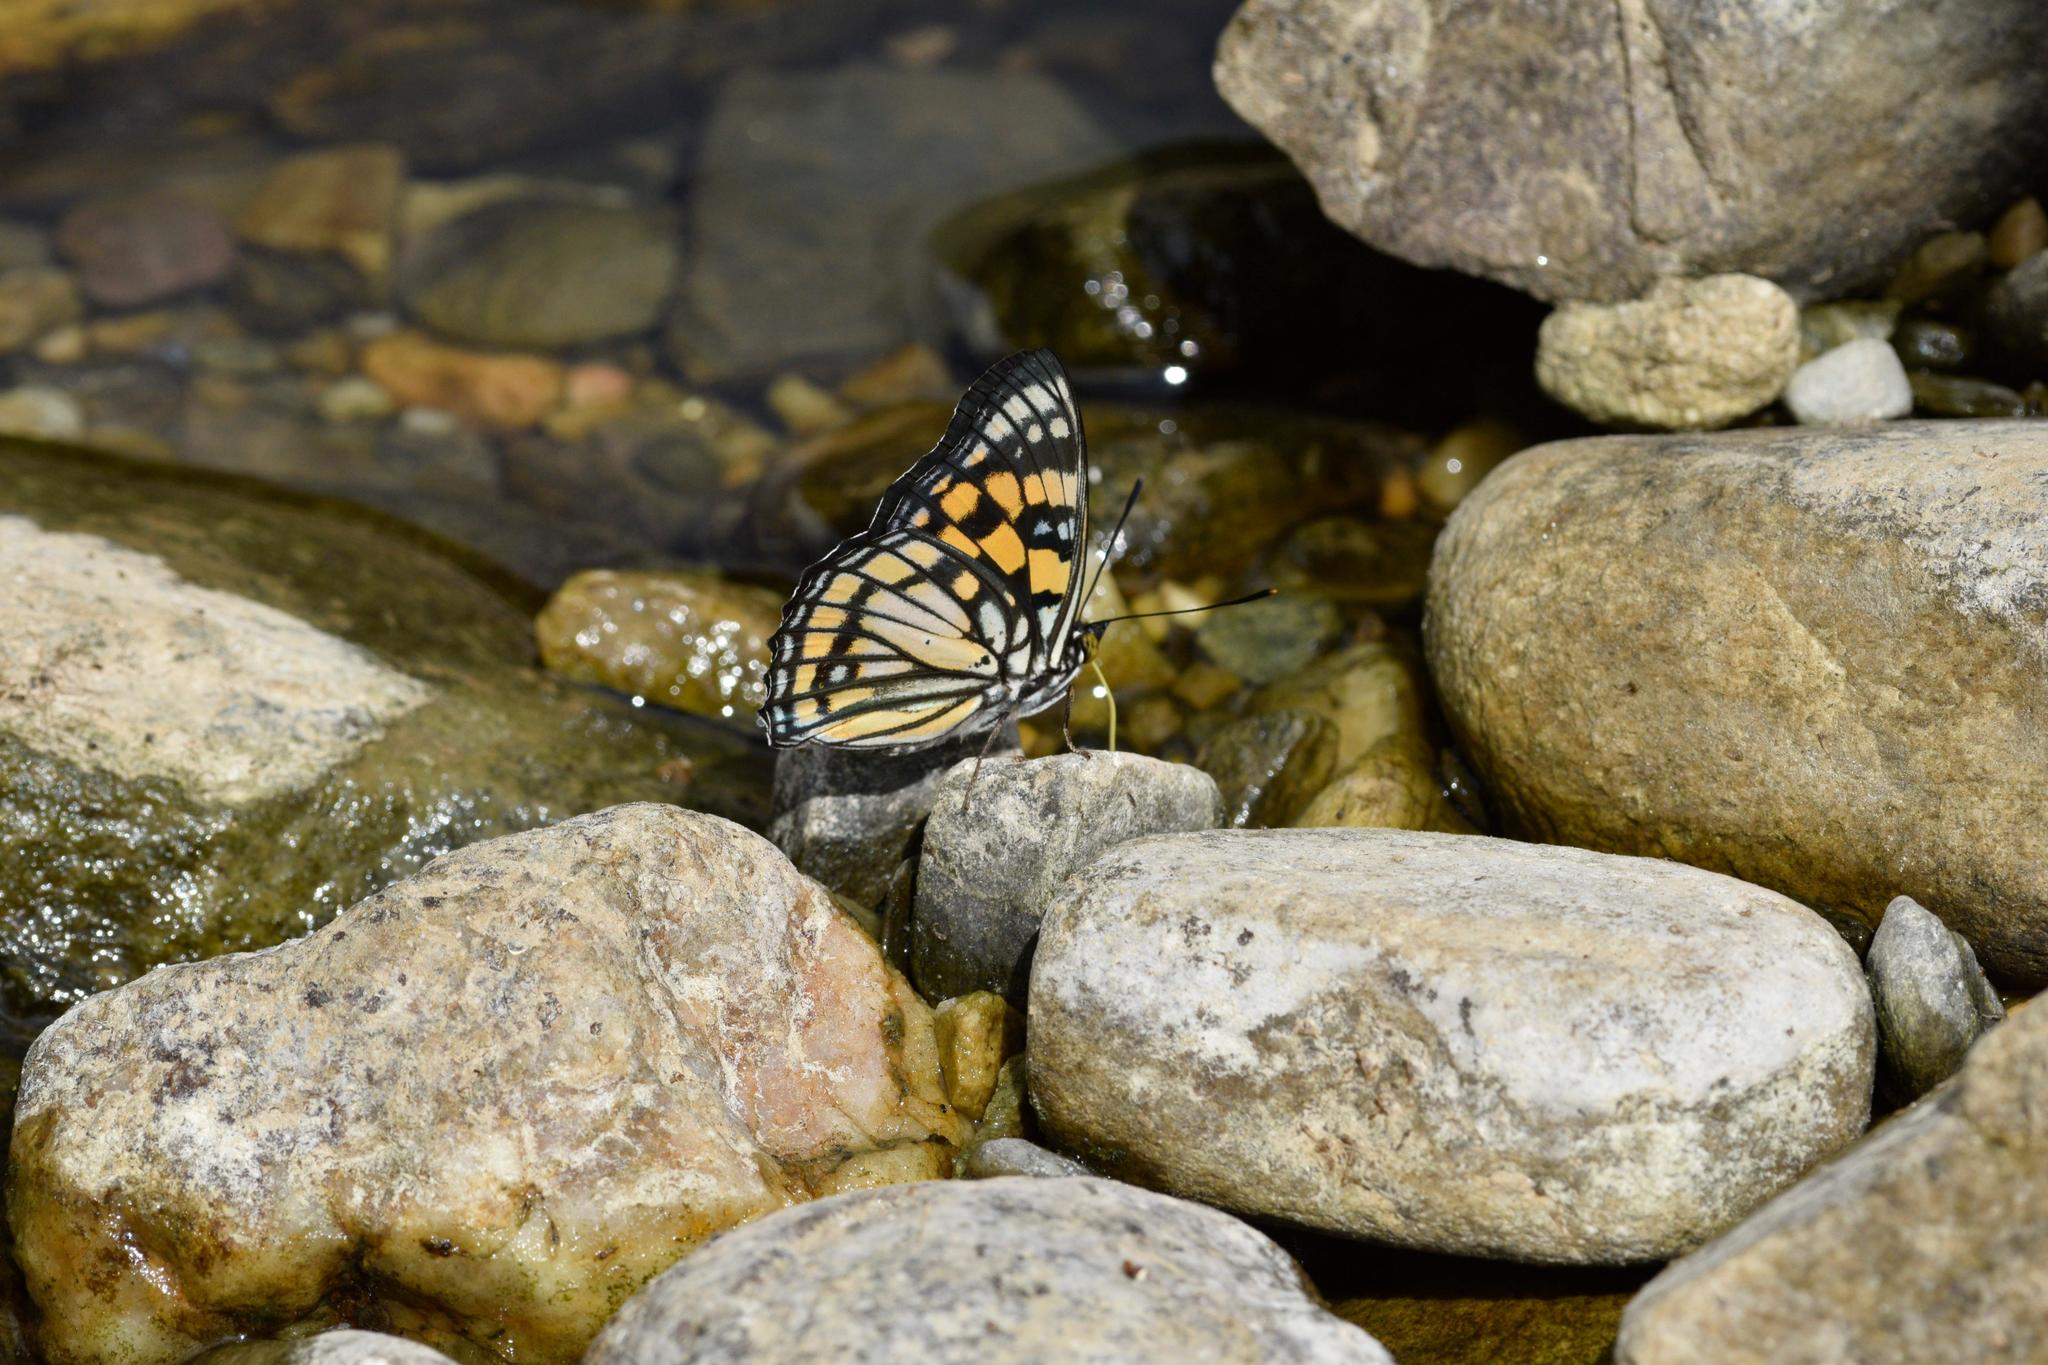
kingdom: Animalia
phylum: Arthropoda
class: Insecta
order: Lepidoptera
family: Nymphalidae
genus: Sephisa
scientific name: Sephisa dichroa
